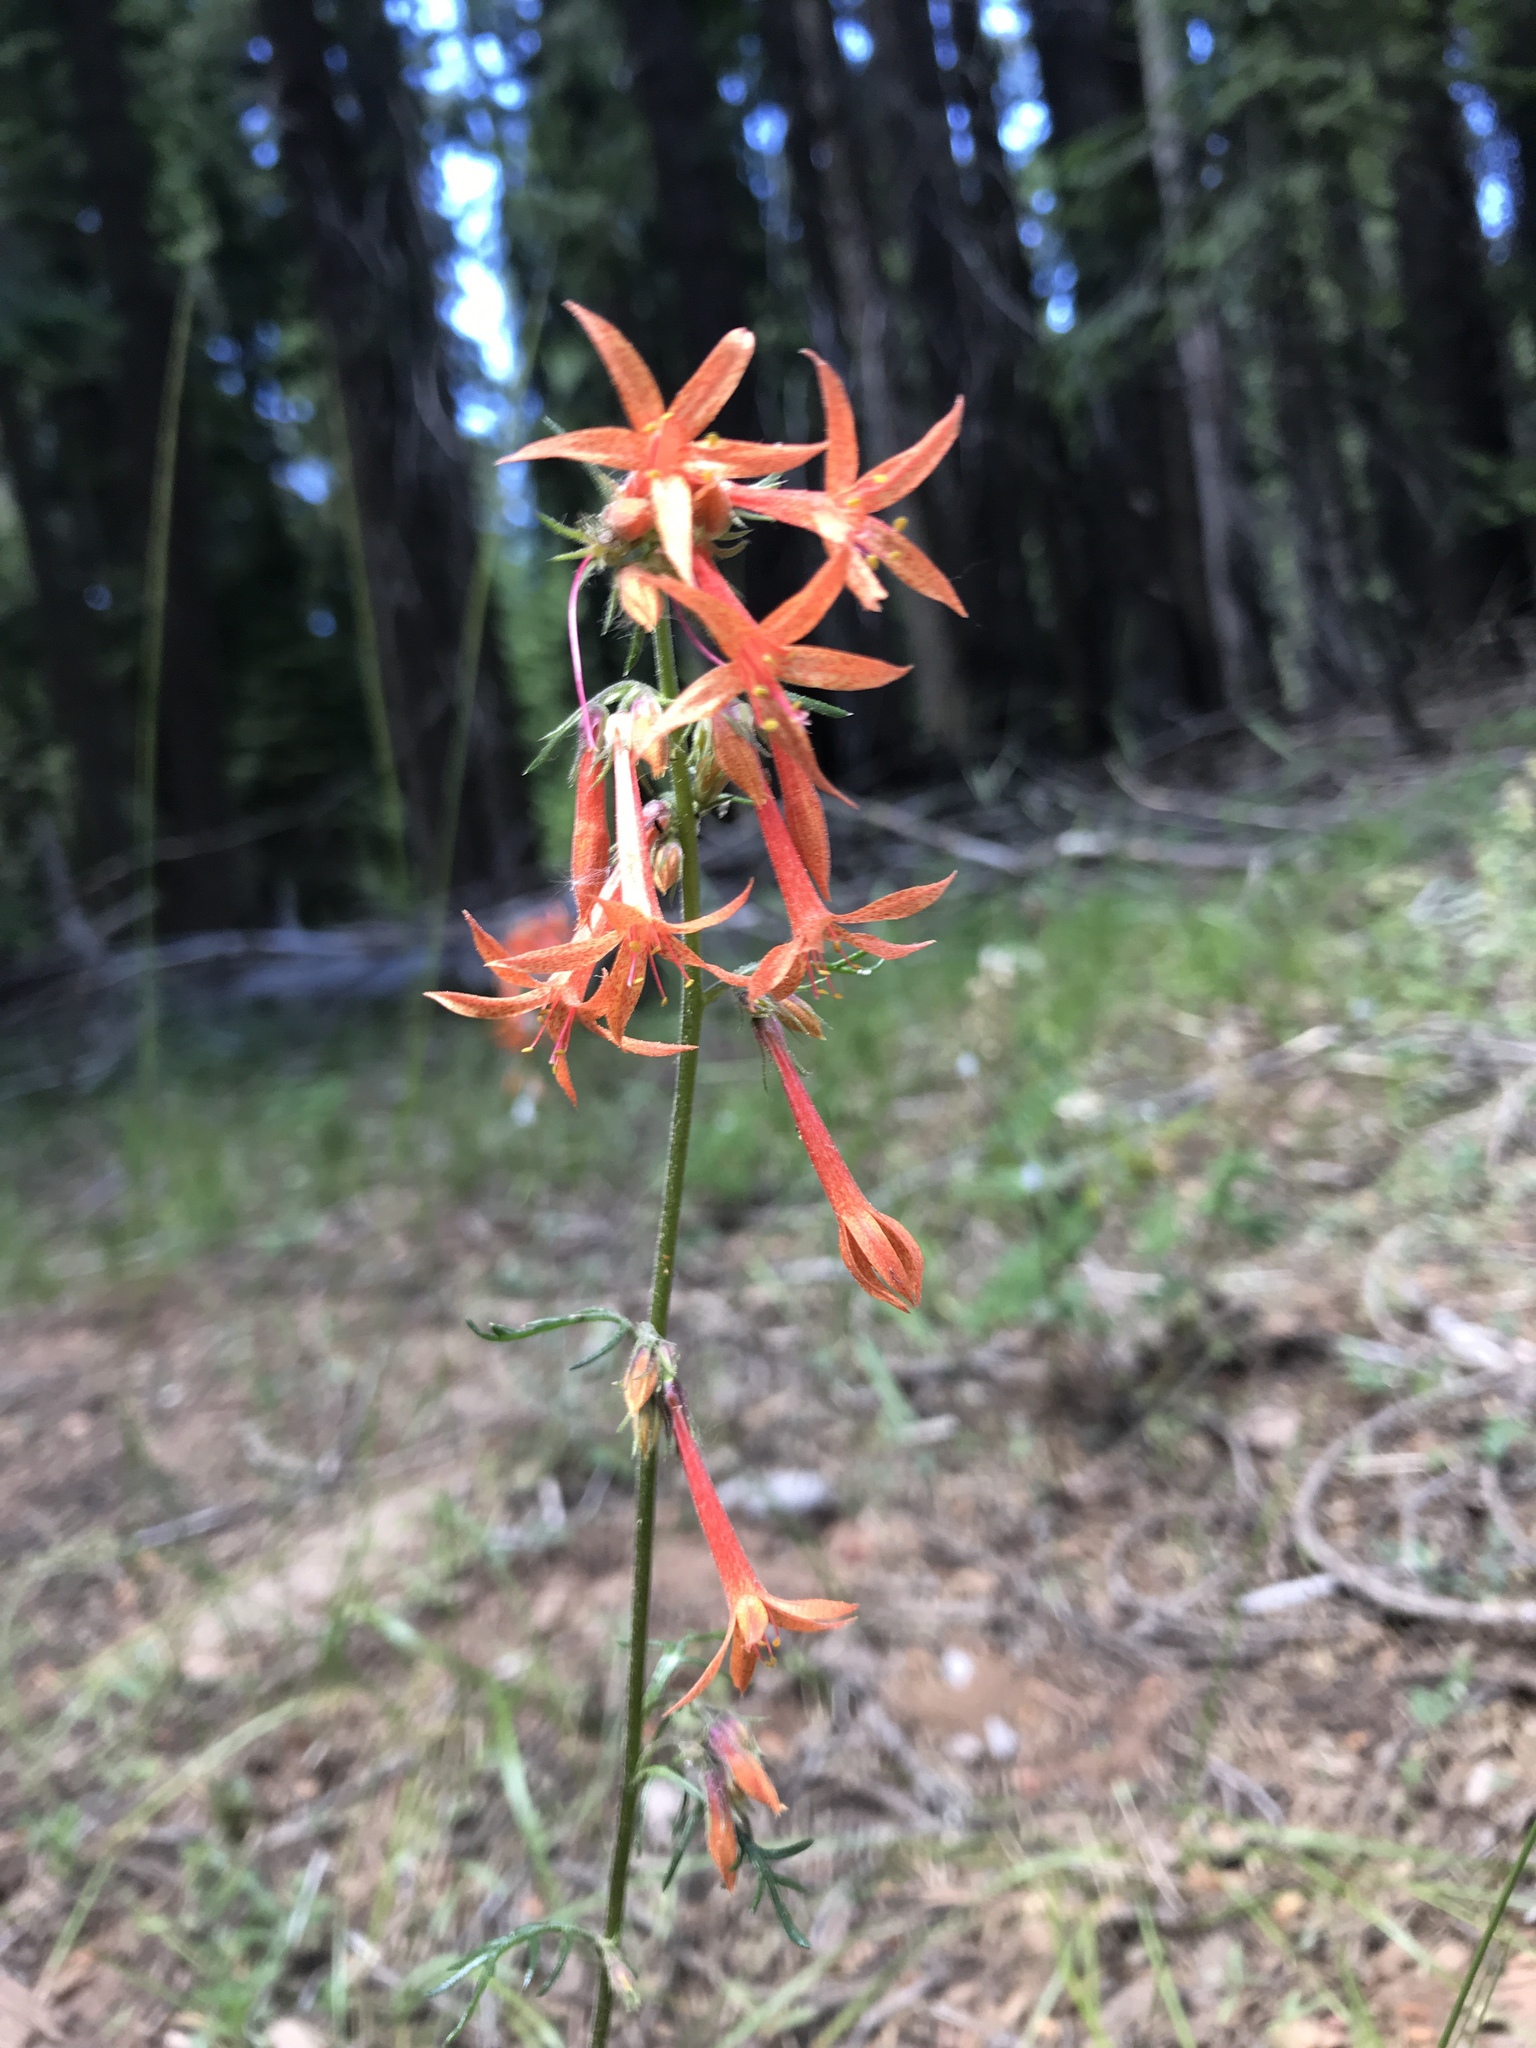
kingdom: Plantae
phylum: Tracheophyta
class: Magnoliopsida
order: Ericales
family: Polemoniaceae
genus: Ipomopsis
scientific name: Ipomopsis aggregata
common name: Scarlet gilia
